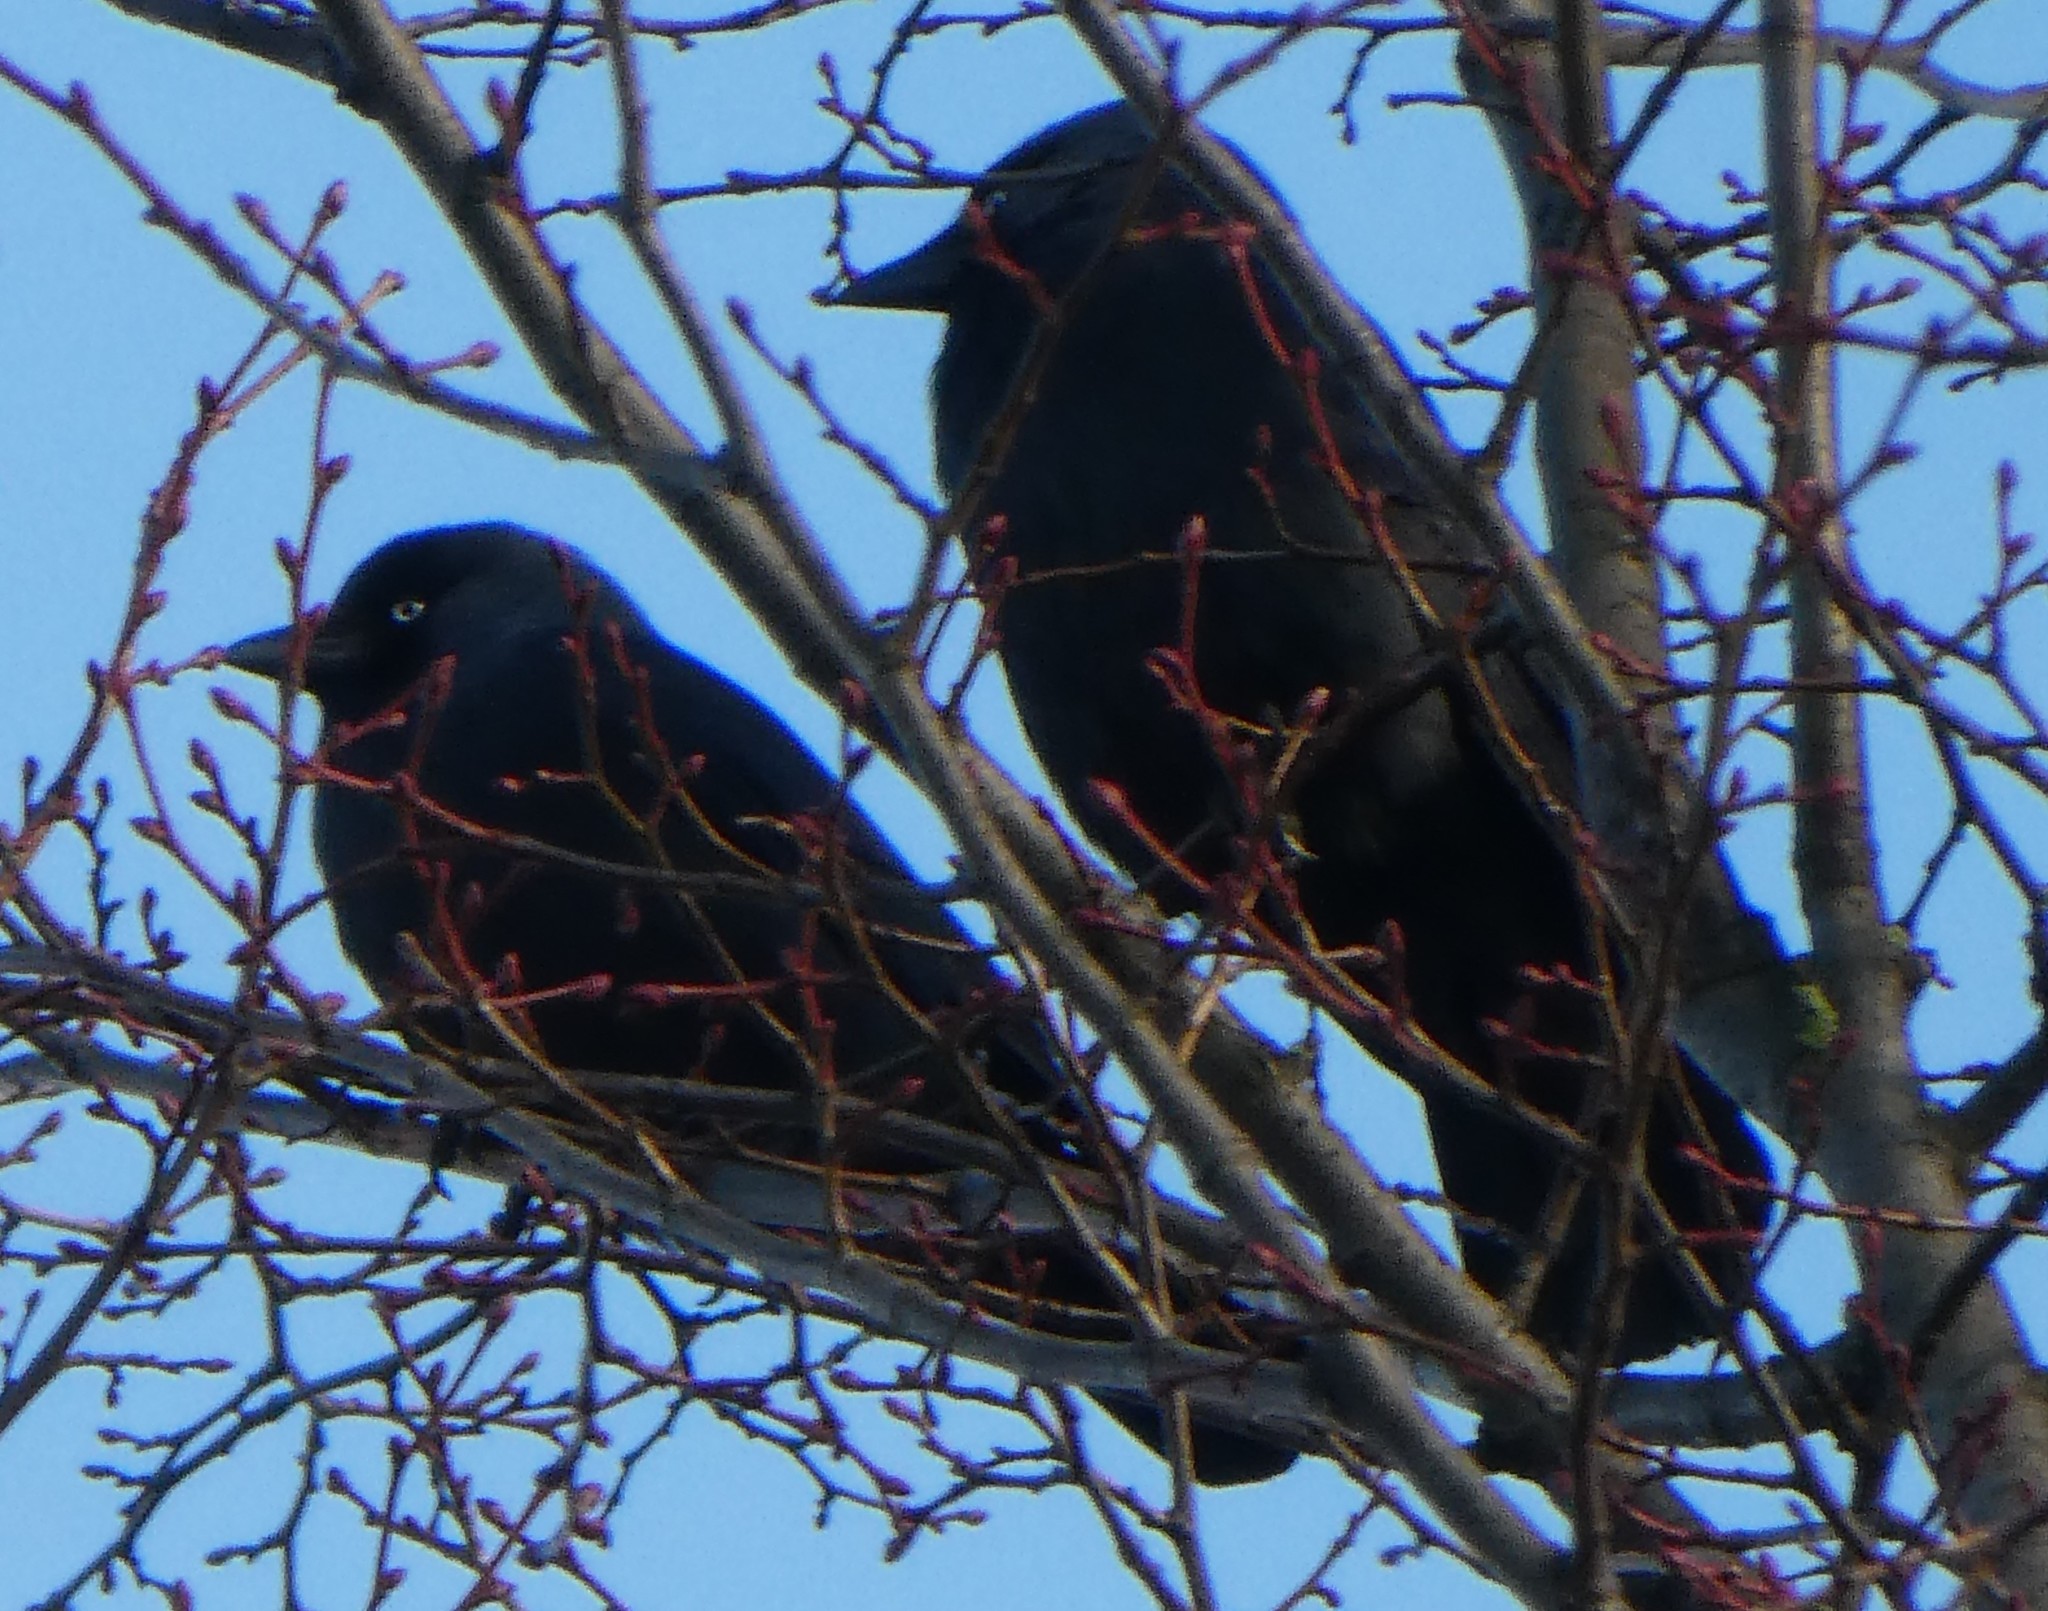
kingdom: Animalia
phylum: Chordata
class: Aves
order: Passeriformes
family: Corvidae
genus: Coloeus
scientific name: Coloeus monedula
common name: Western jackdaw
